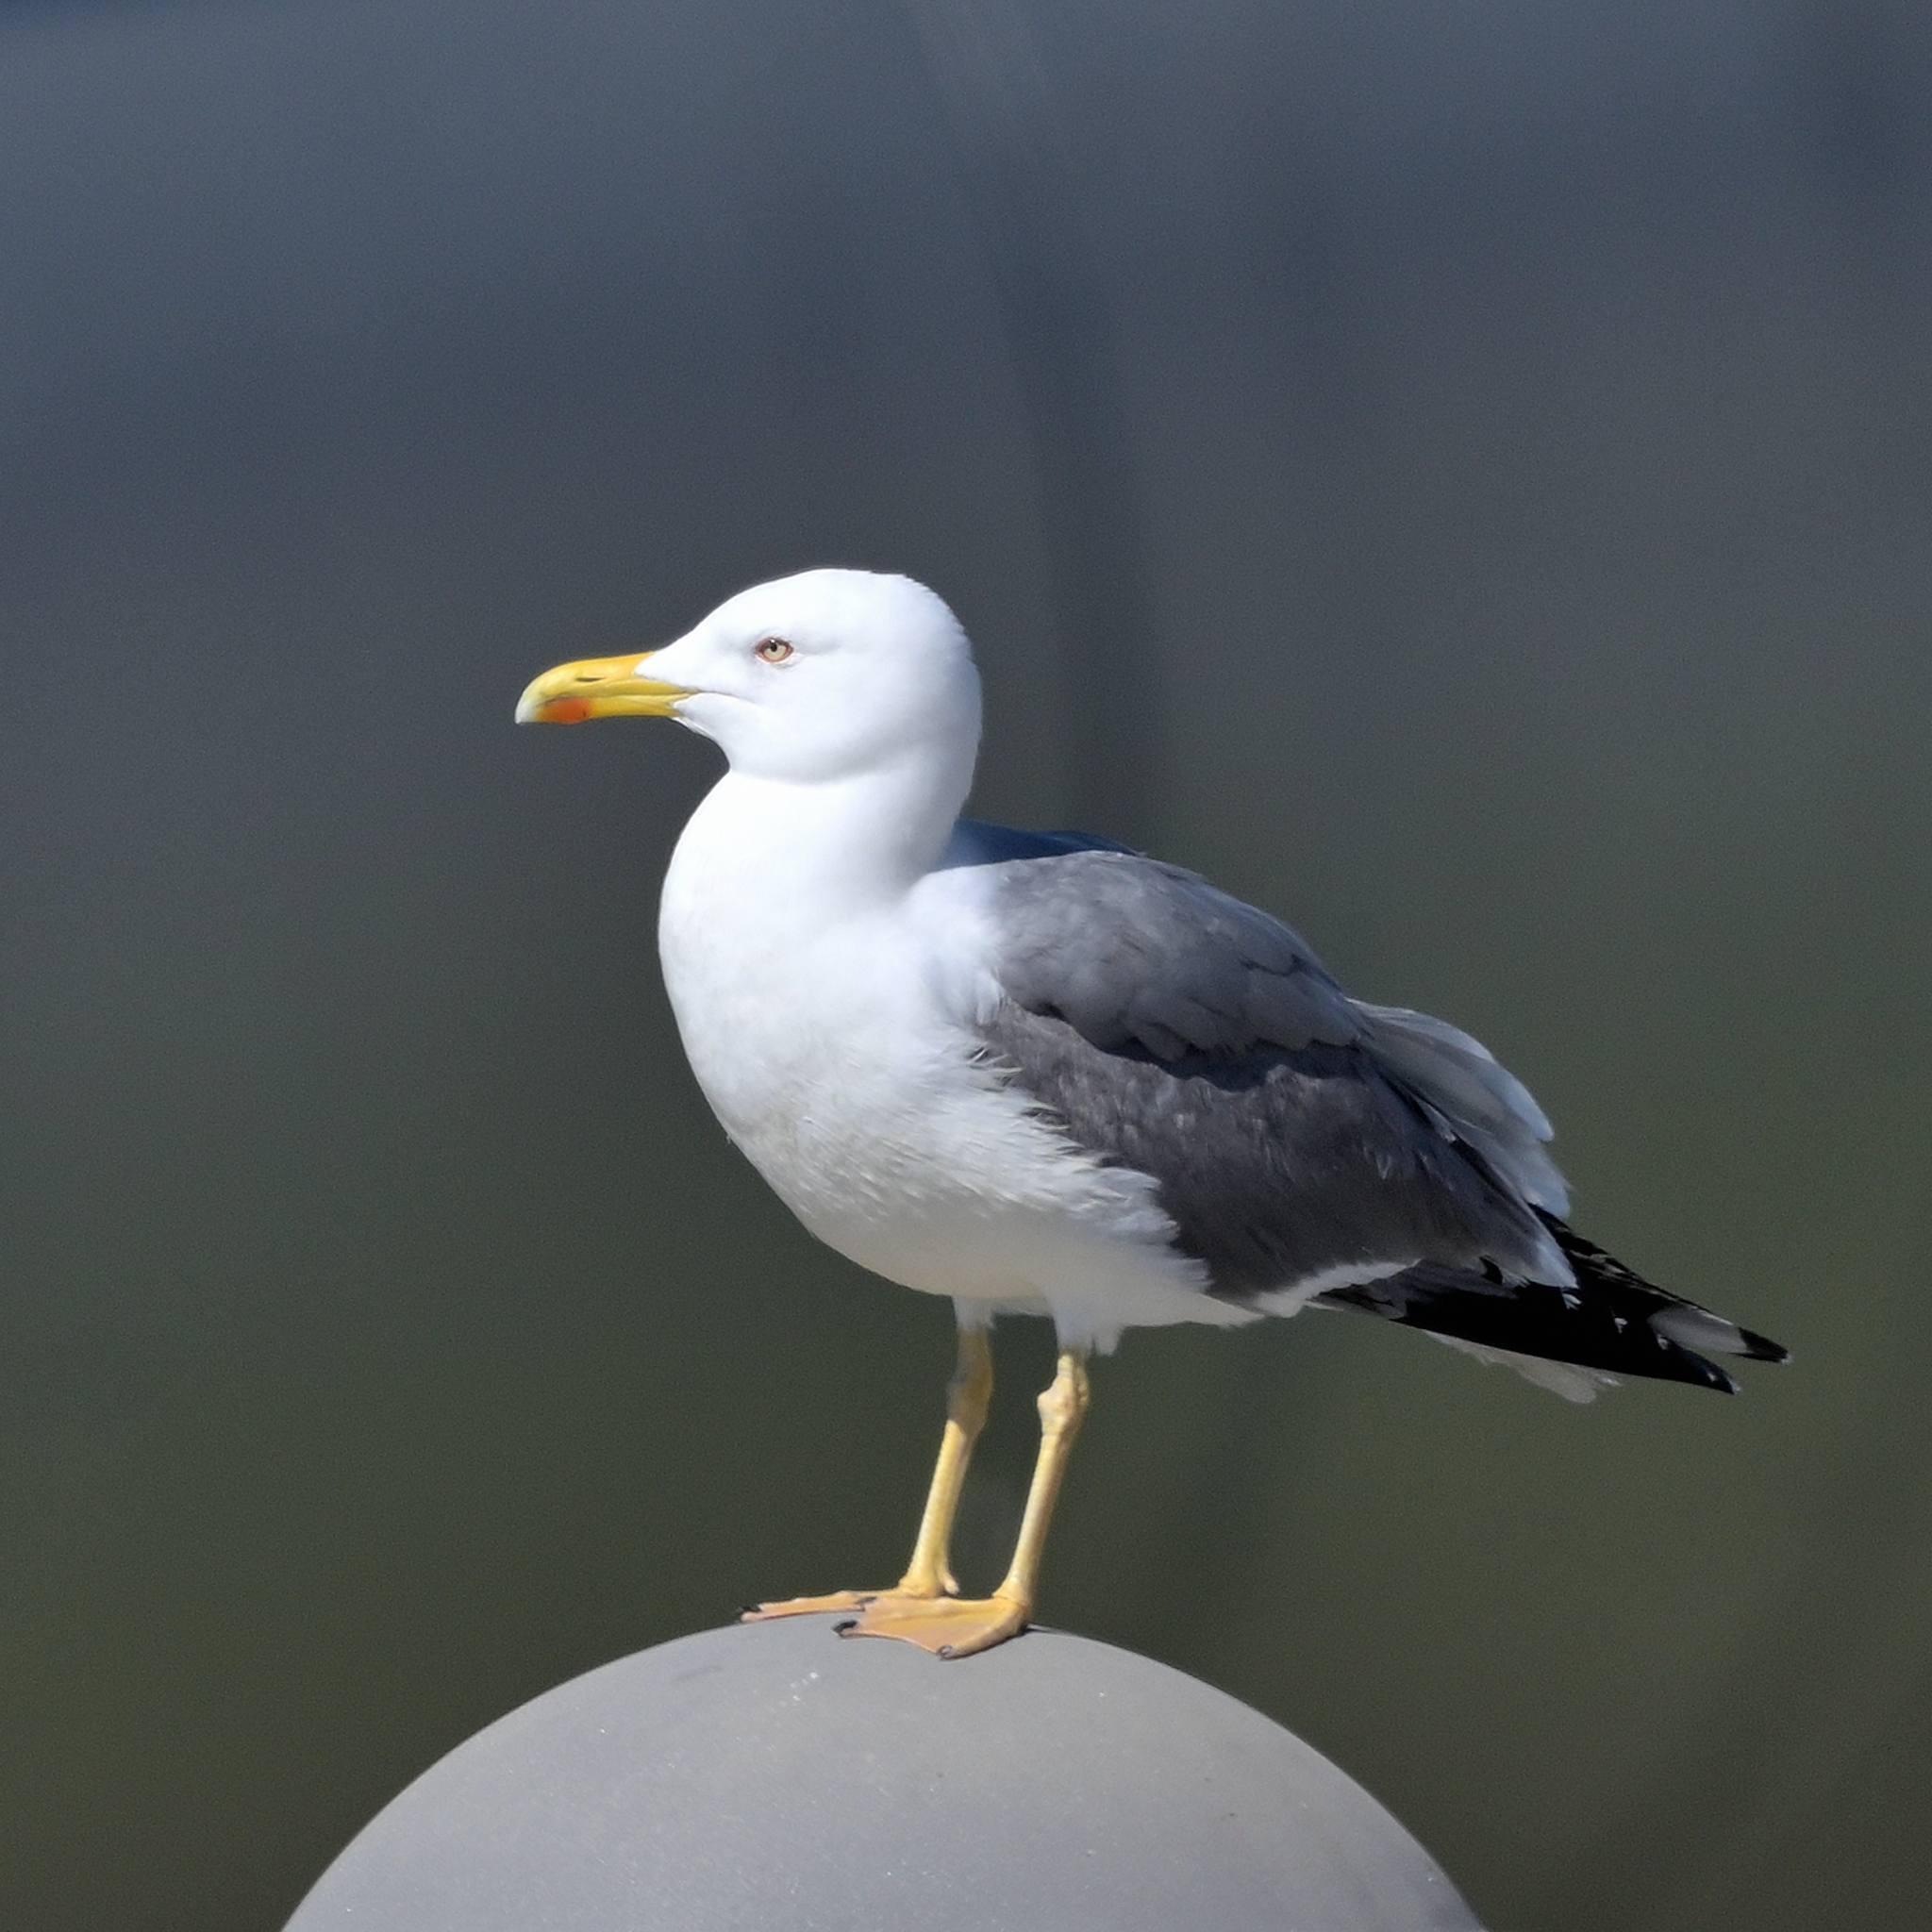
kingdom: Animalia
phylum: Chordata
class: Aves
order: Charadriiformes
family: Laridae
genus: Larus
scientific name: Larus michahellis
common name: Yellow-legged gull
